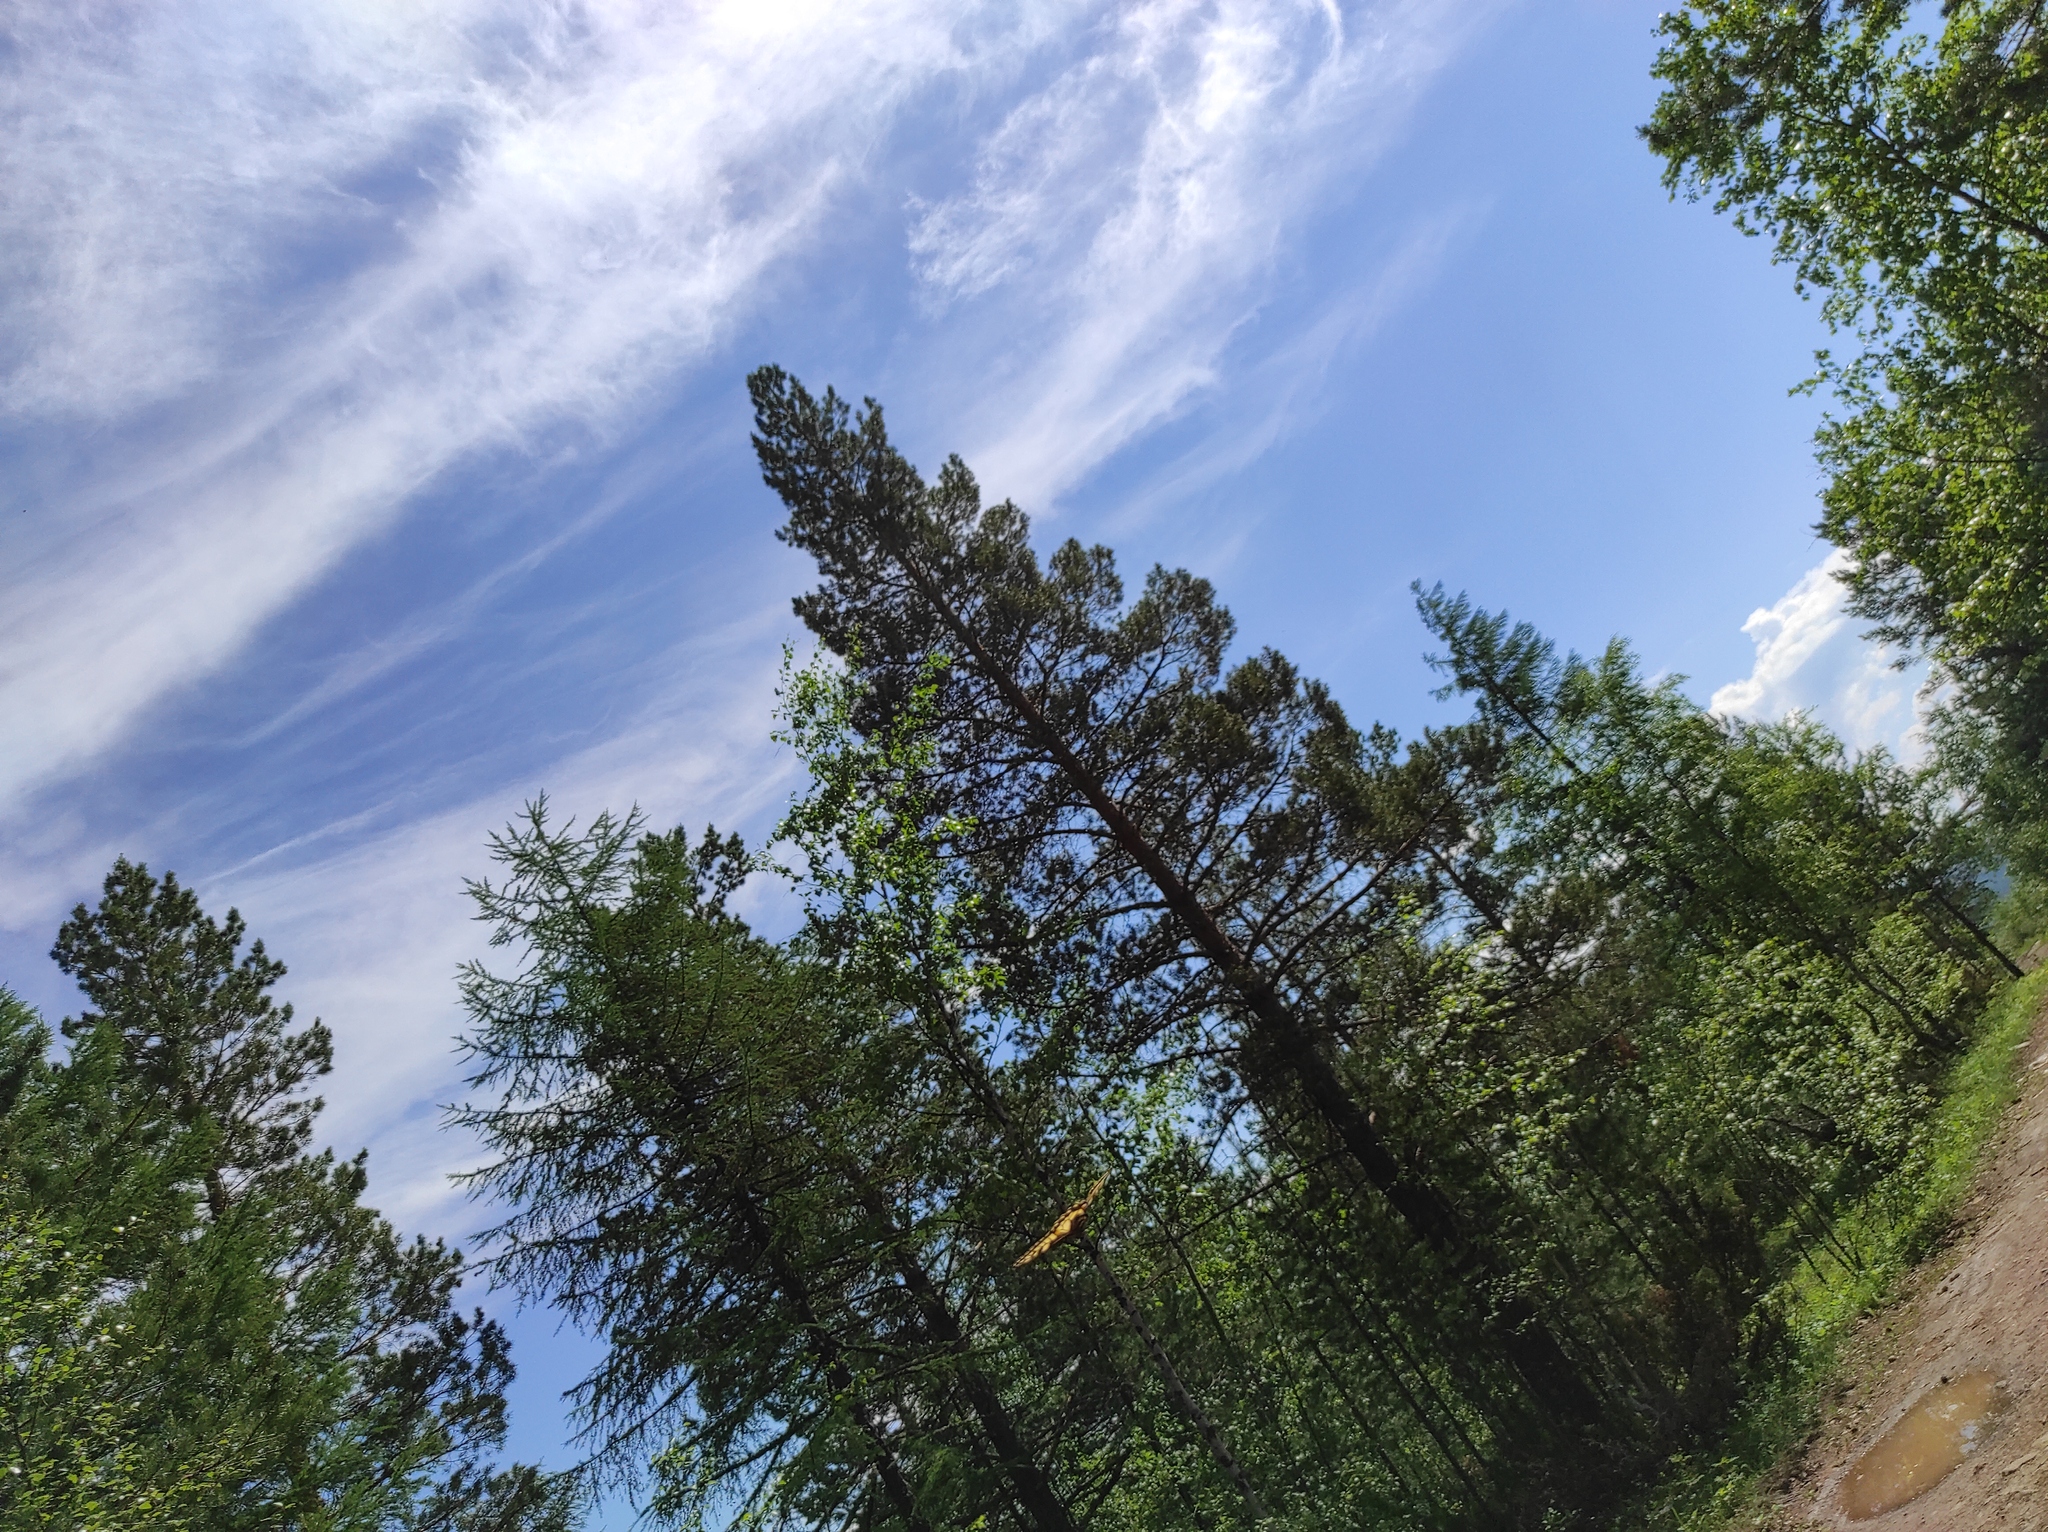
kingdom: Plantae
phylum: Tracheophyta
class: Pinopsida
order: Pinales
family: Pinaceae
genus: Pinus
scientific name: Pinus sylvestris
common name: Scots pine
